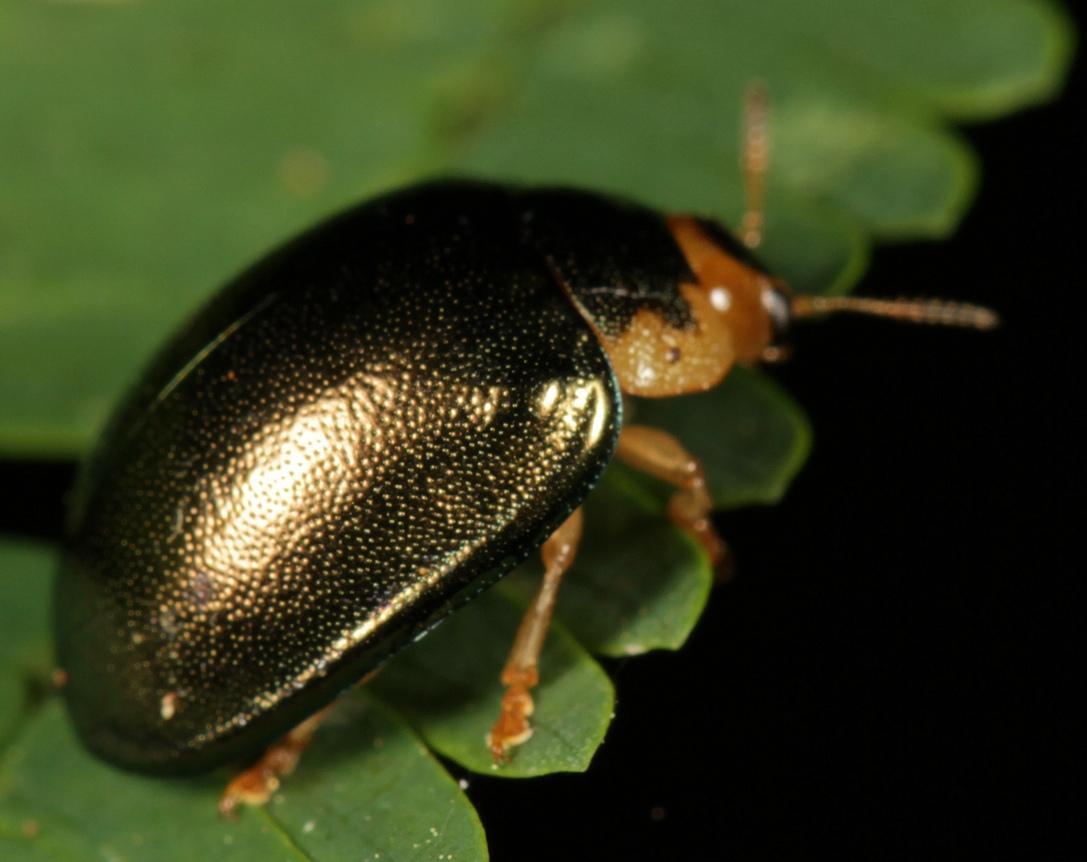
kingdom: Animalia
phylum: Arthropoda
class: Insecta
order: Coleoptera
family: Chrysomelidae
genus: Plagiosterna
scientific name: Plagiosterna
